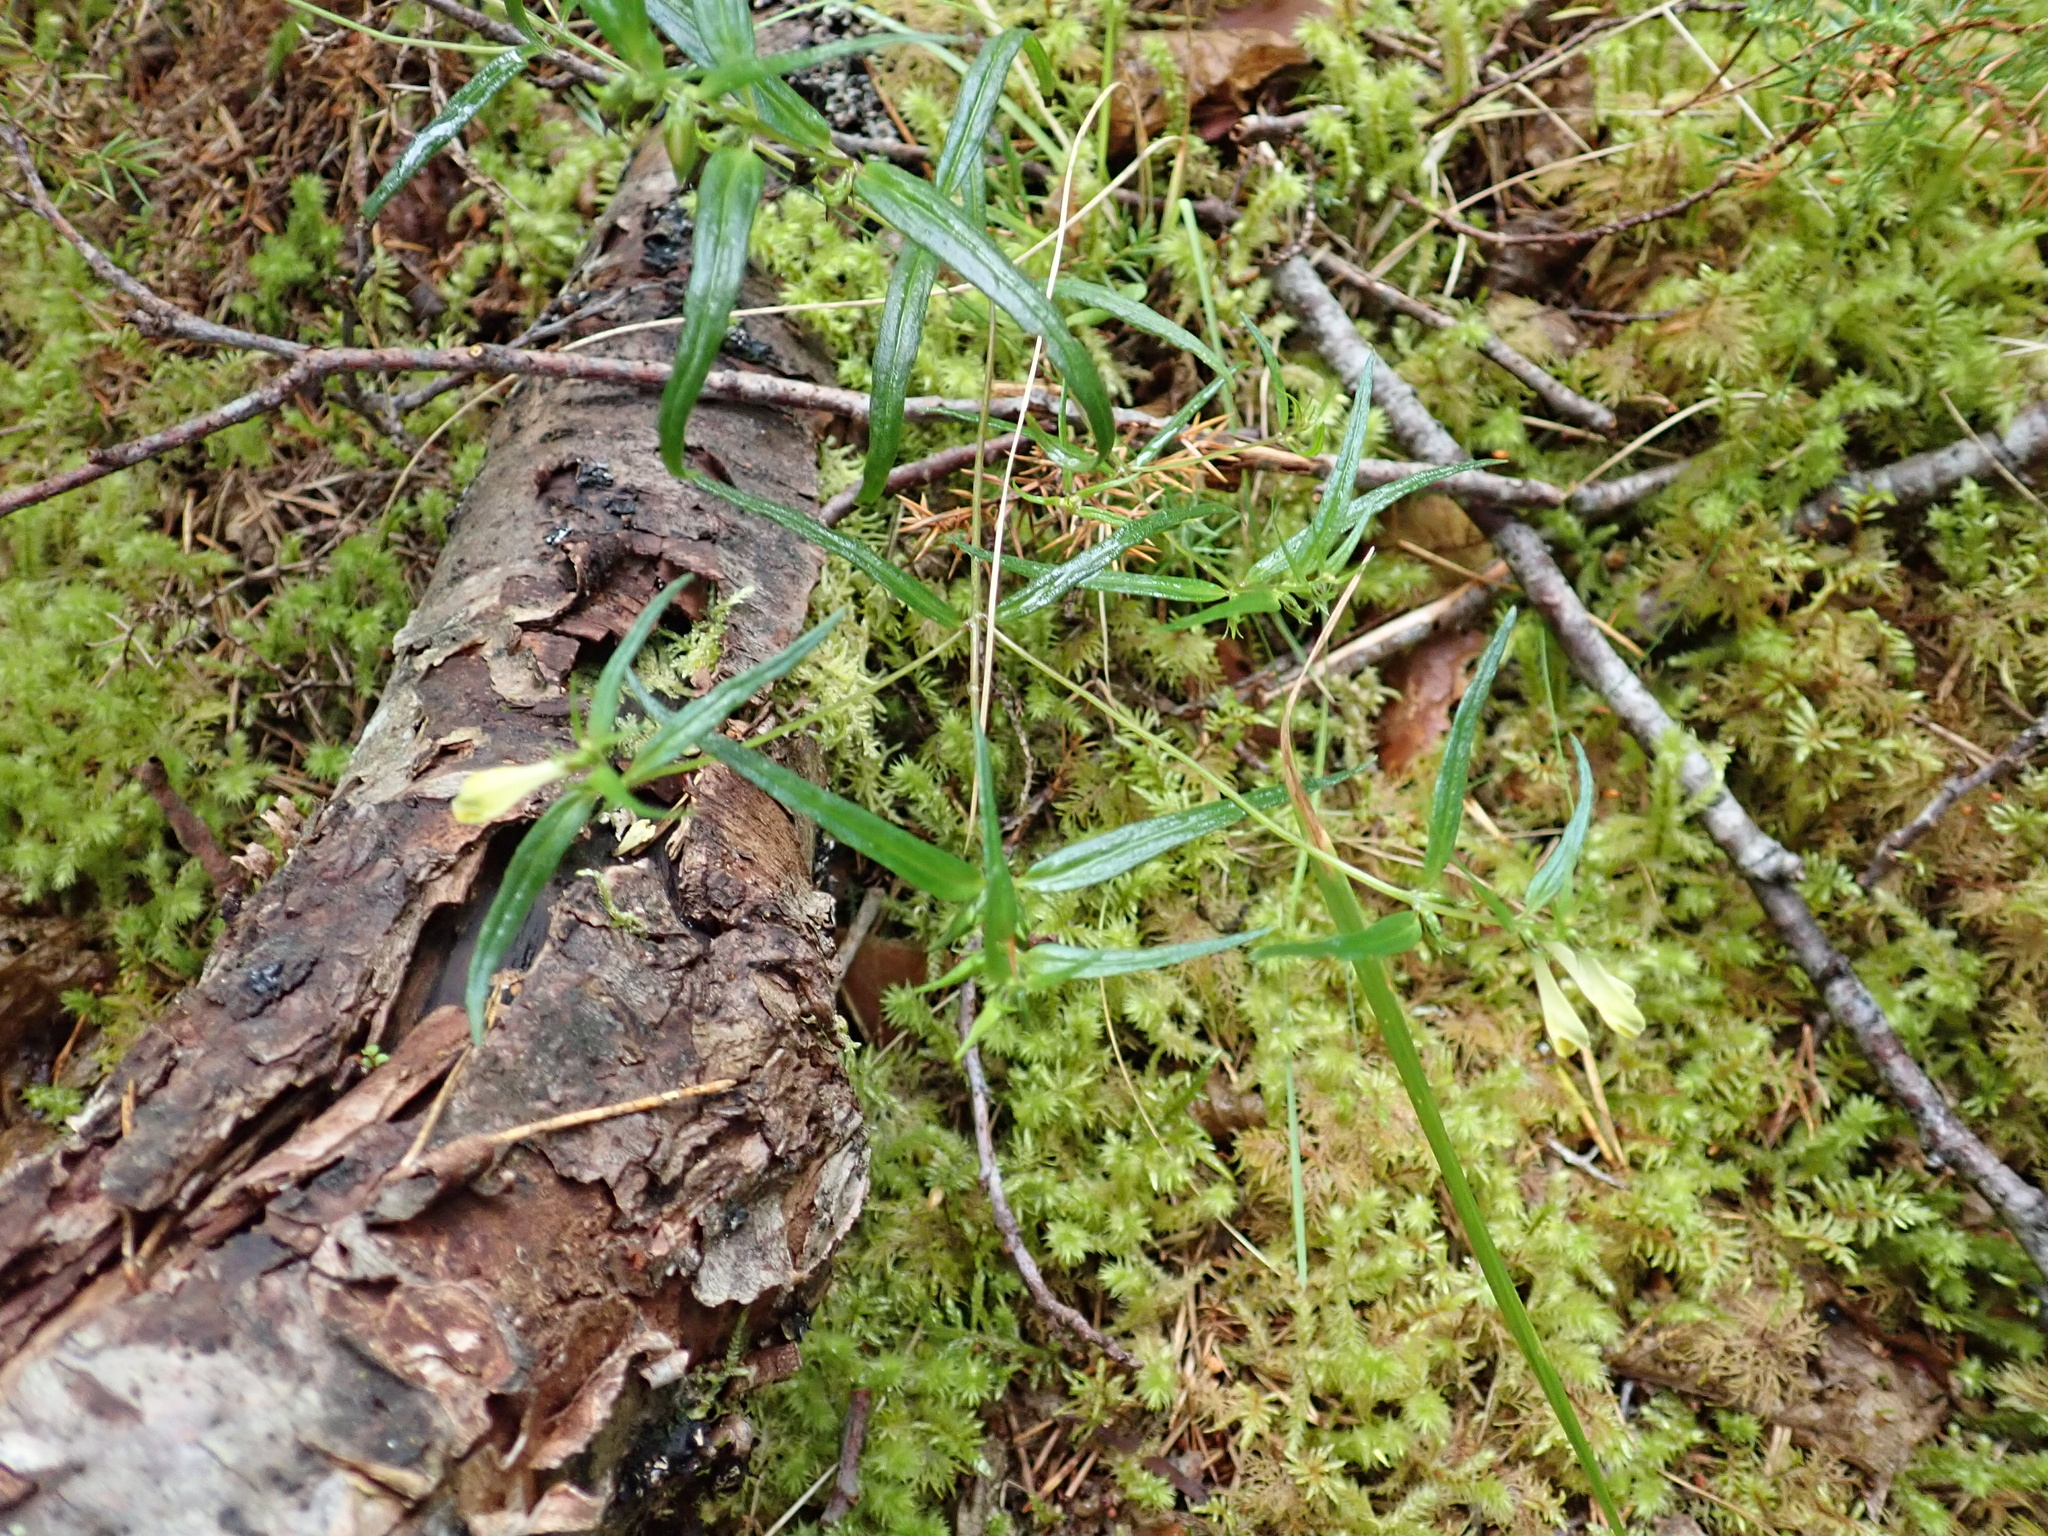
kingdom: Plantae
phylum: Tracheophyta
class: Magnoliopsida
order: Lamiales
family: Orobanchaceae
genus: Melampyrum
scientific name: Melampyrum pratense
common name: Common cow-wheat
